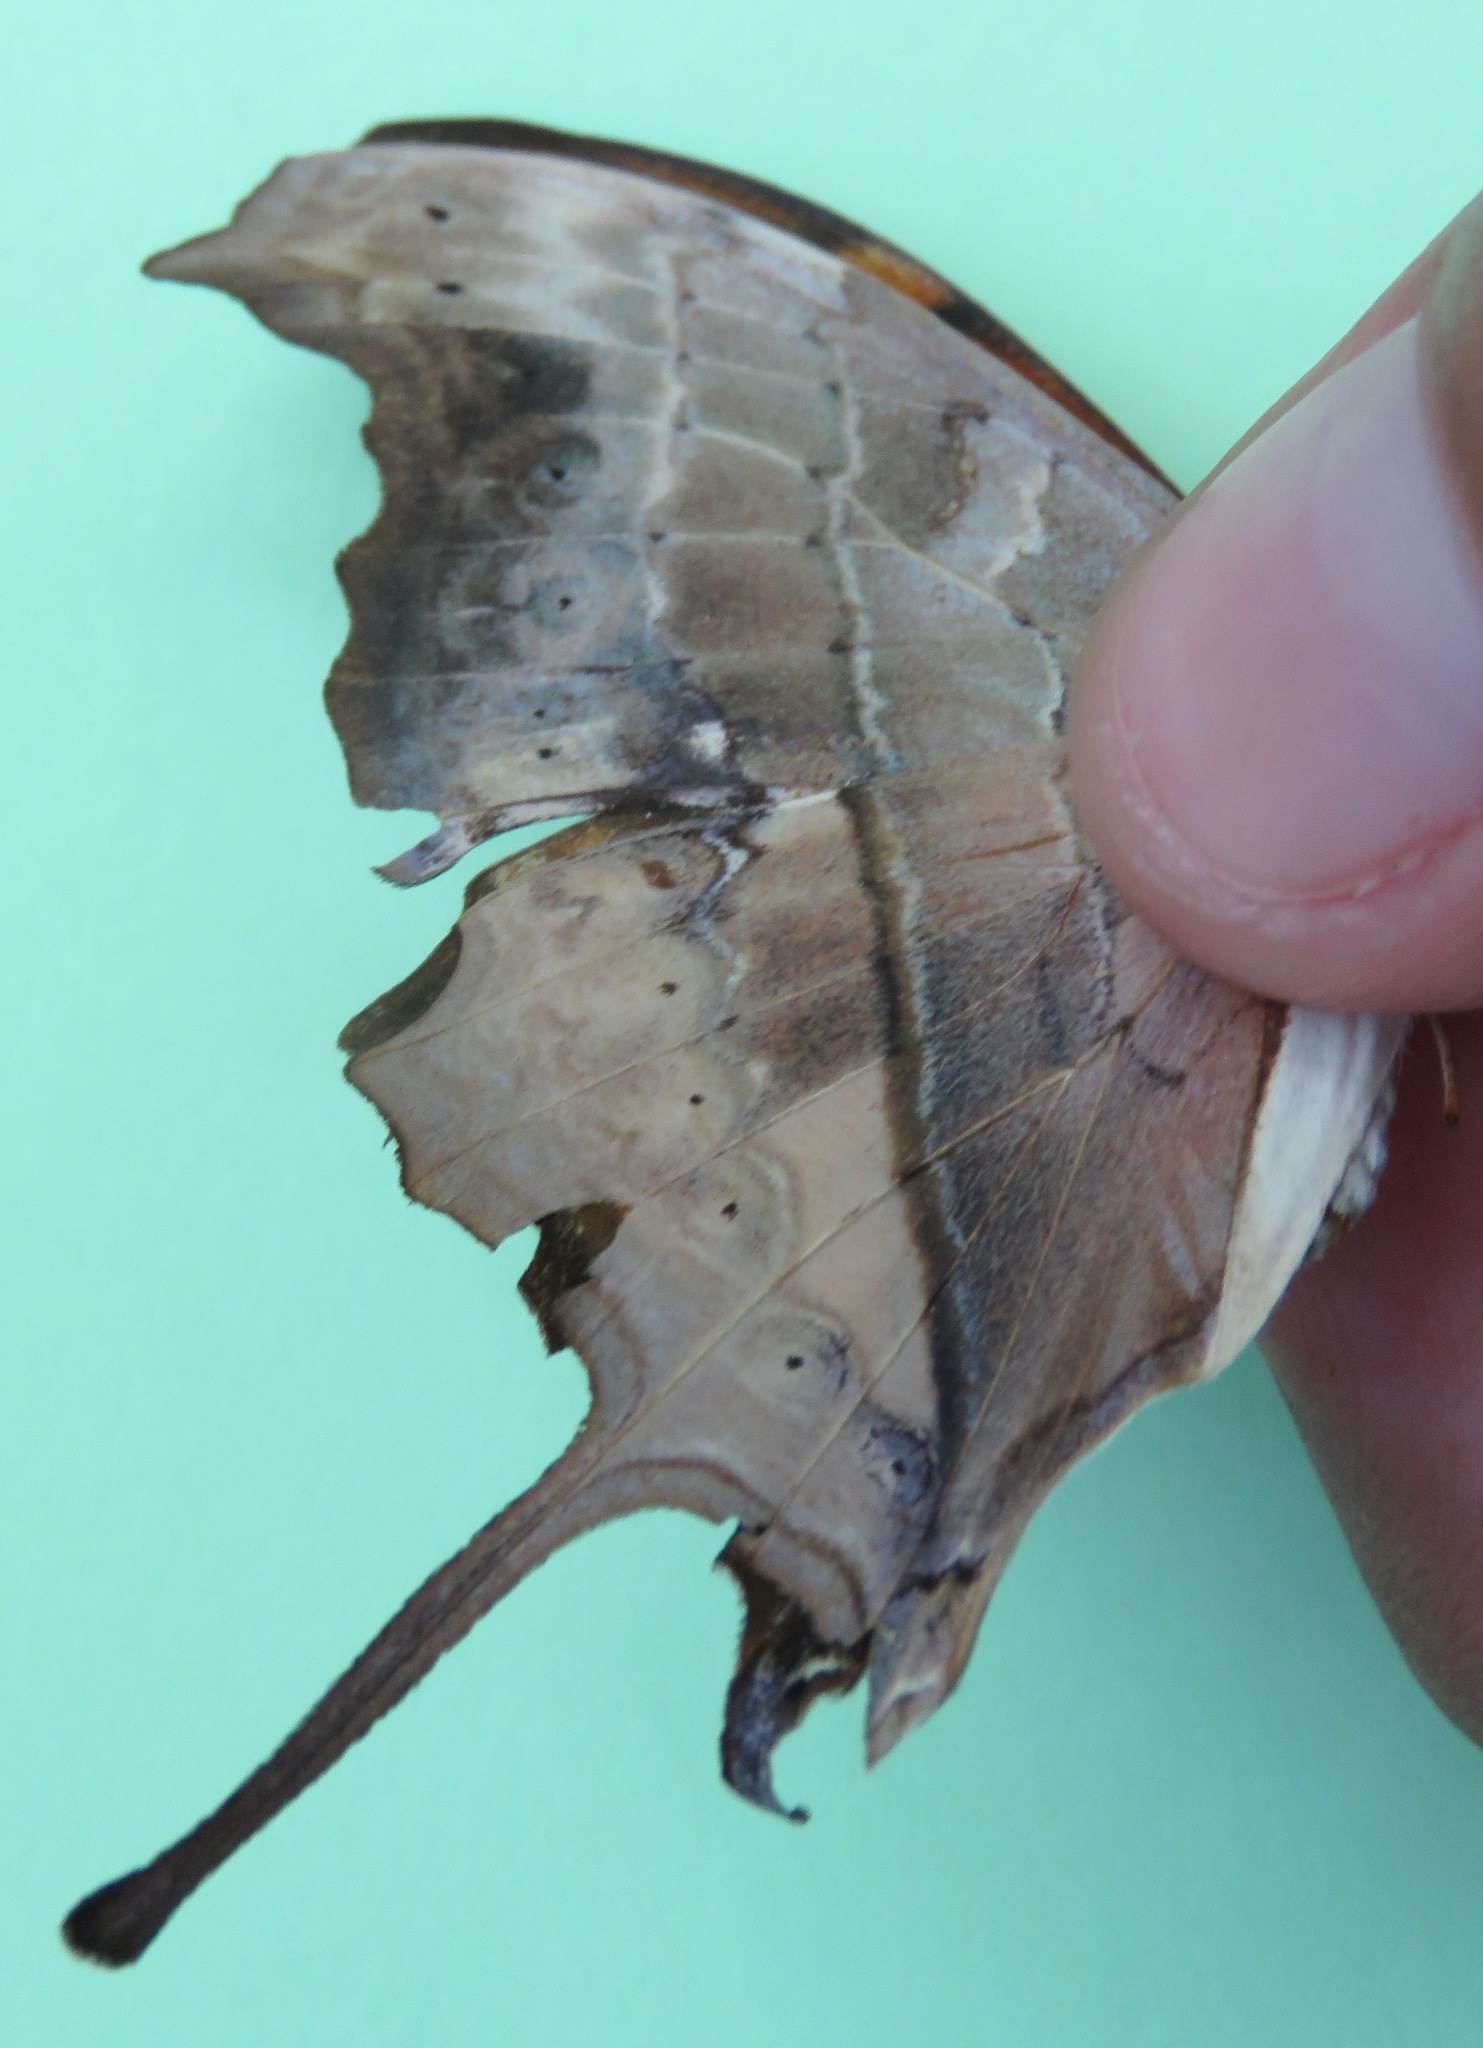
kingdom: Animalia
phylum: Arthropoda
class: Insecta
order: Lepidoptera
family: Nymphalidae
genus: Marpesia
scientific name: Marpesia petreus
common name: Red dagger wing
